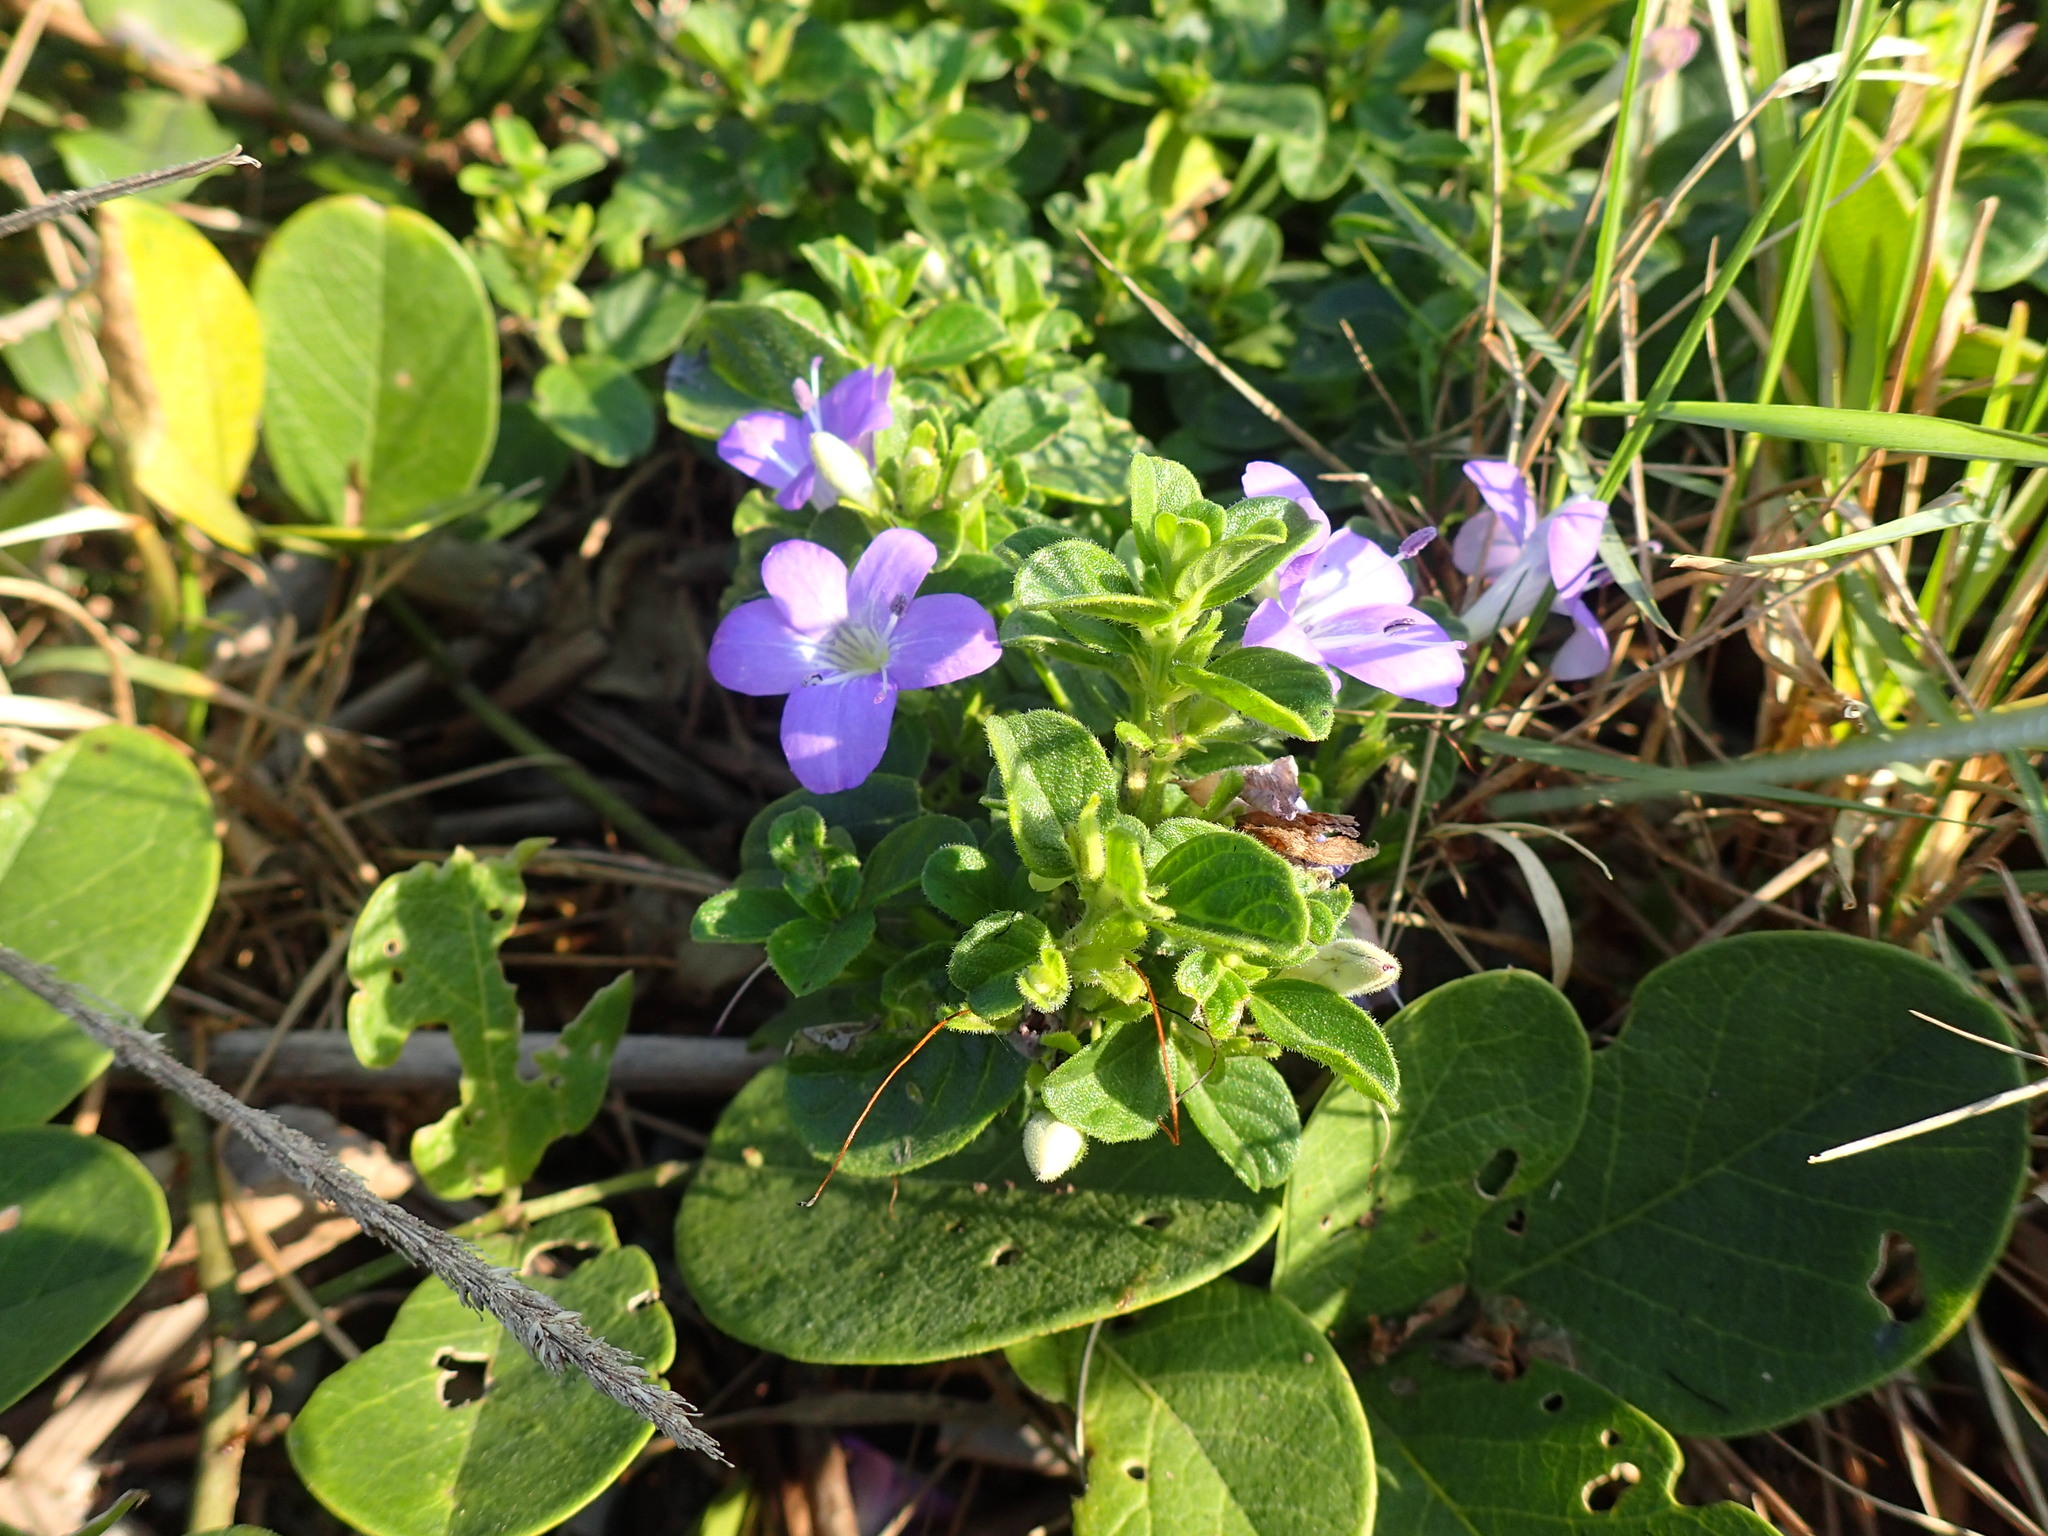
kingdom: Plantae
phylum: Tracheophyta
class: Magnoliopsida
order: Lamiales
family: Acanthaceae
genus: Barleria
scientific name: Barleria obtusa
